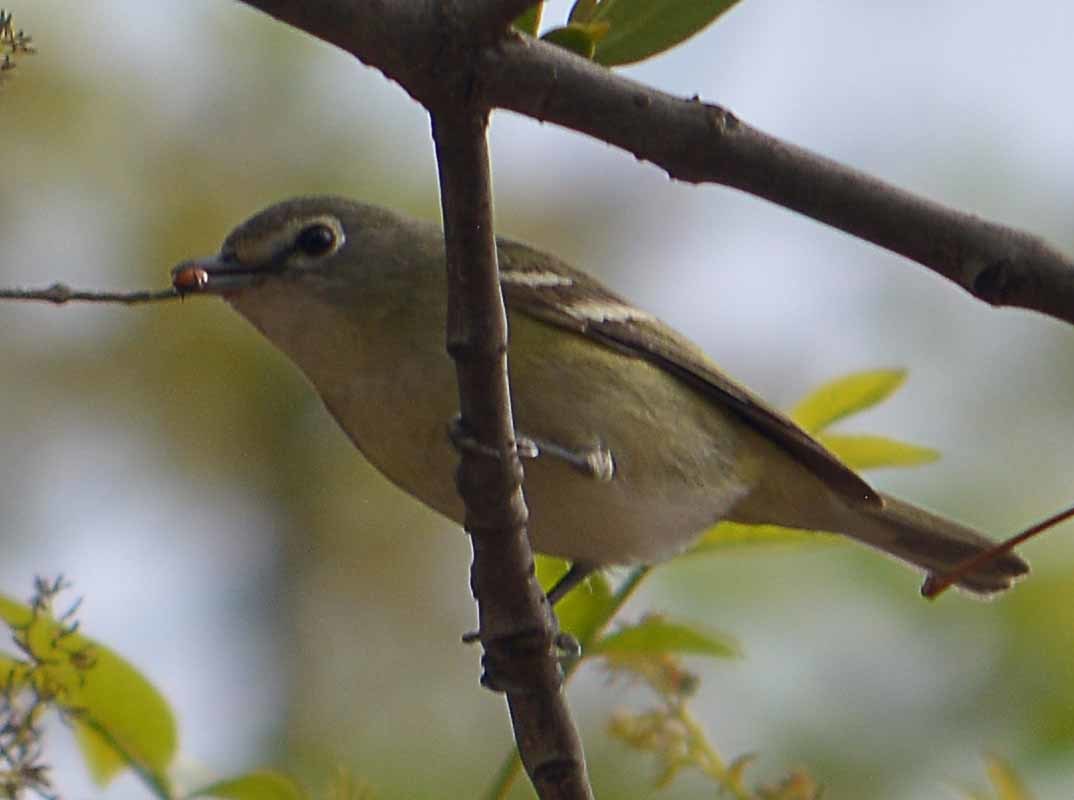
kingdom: Animalia
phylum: Chordata
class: Aves
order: Passeriformes
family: Vireonidae
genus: Vireo
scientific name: Vireo cassinii
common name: Cassin's vireo
